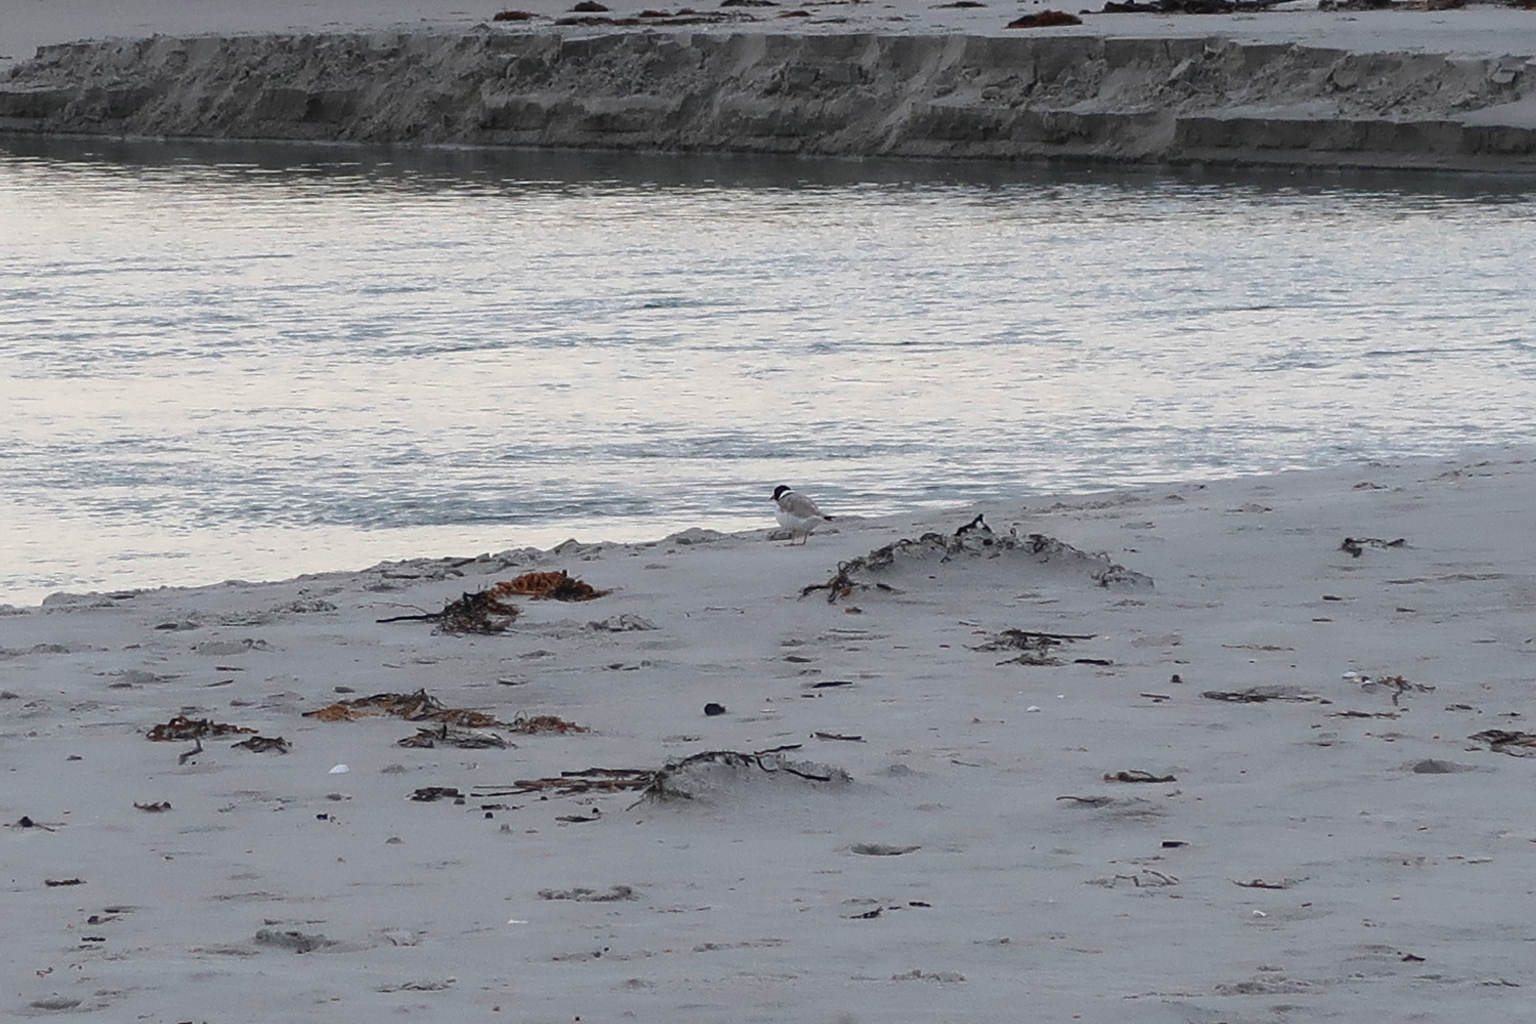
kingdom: Animalia
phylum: Chordata
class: Aves
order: Charadriiformes
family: Charadriidae
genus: Thinornis
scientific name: Thinornis cucullatus
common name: Hooded dotterel
